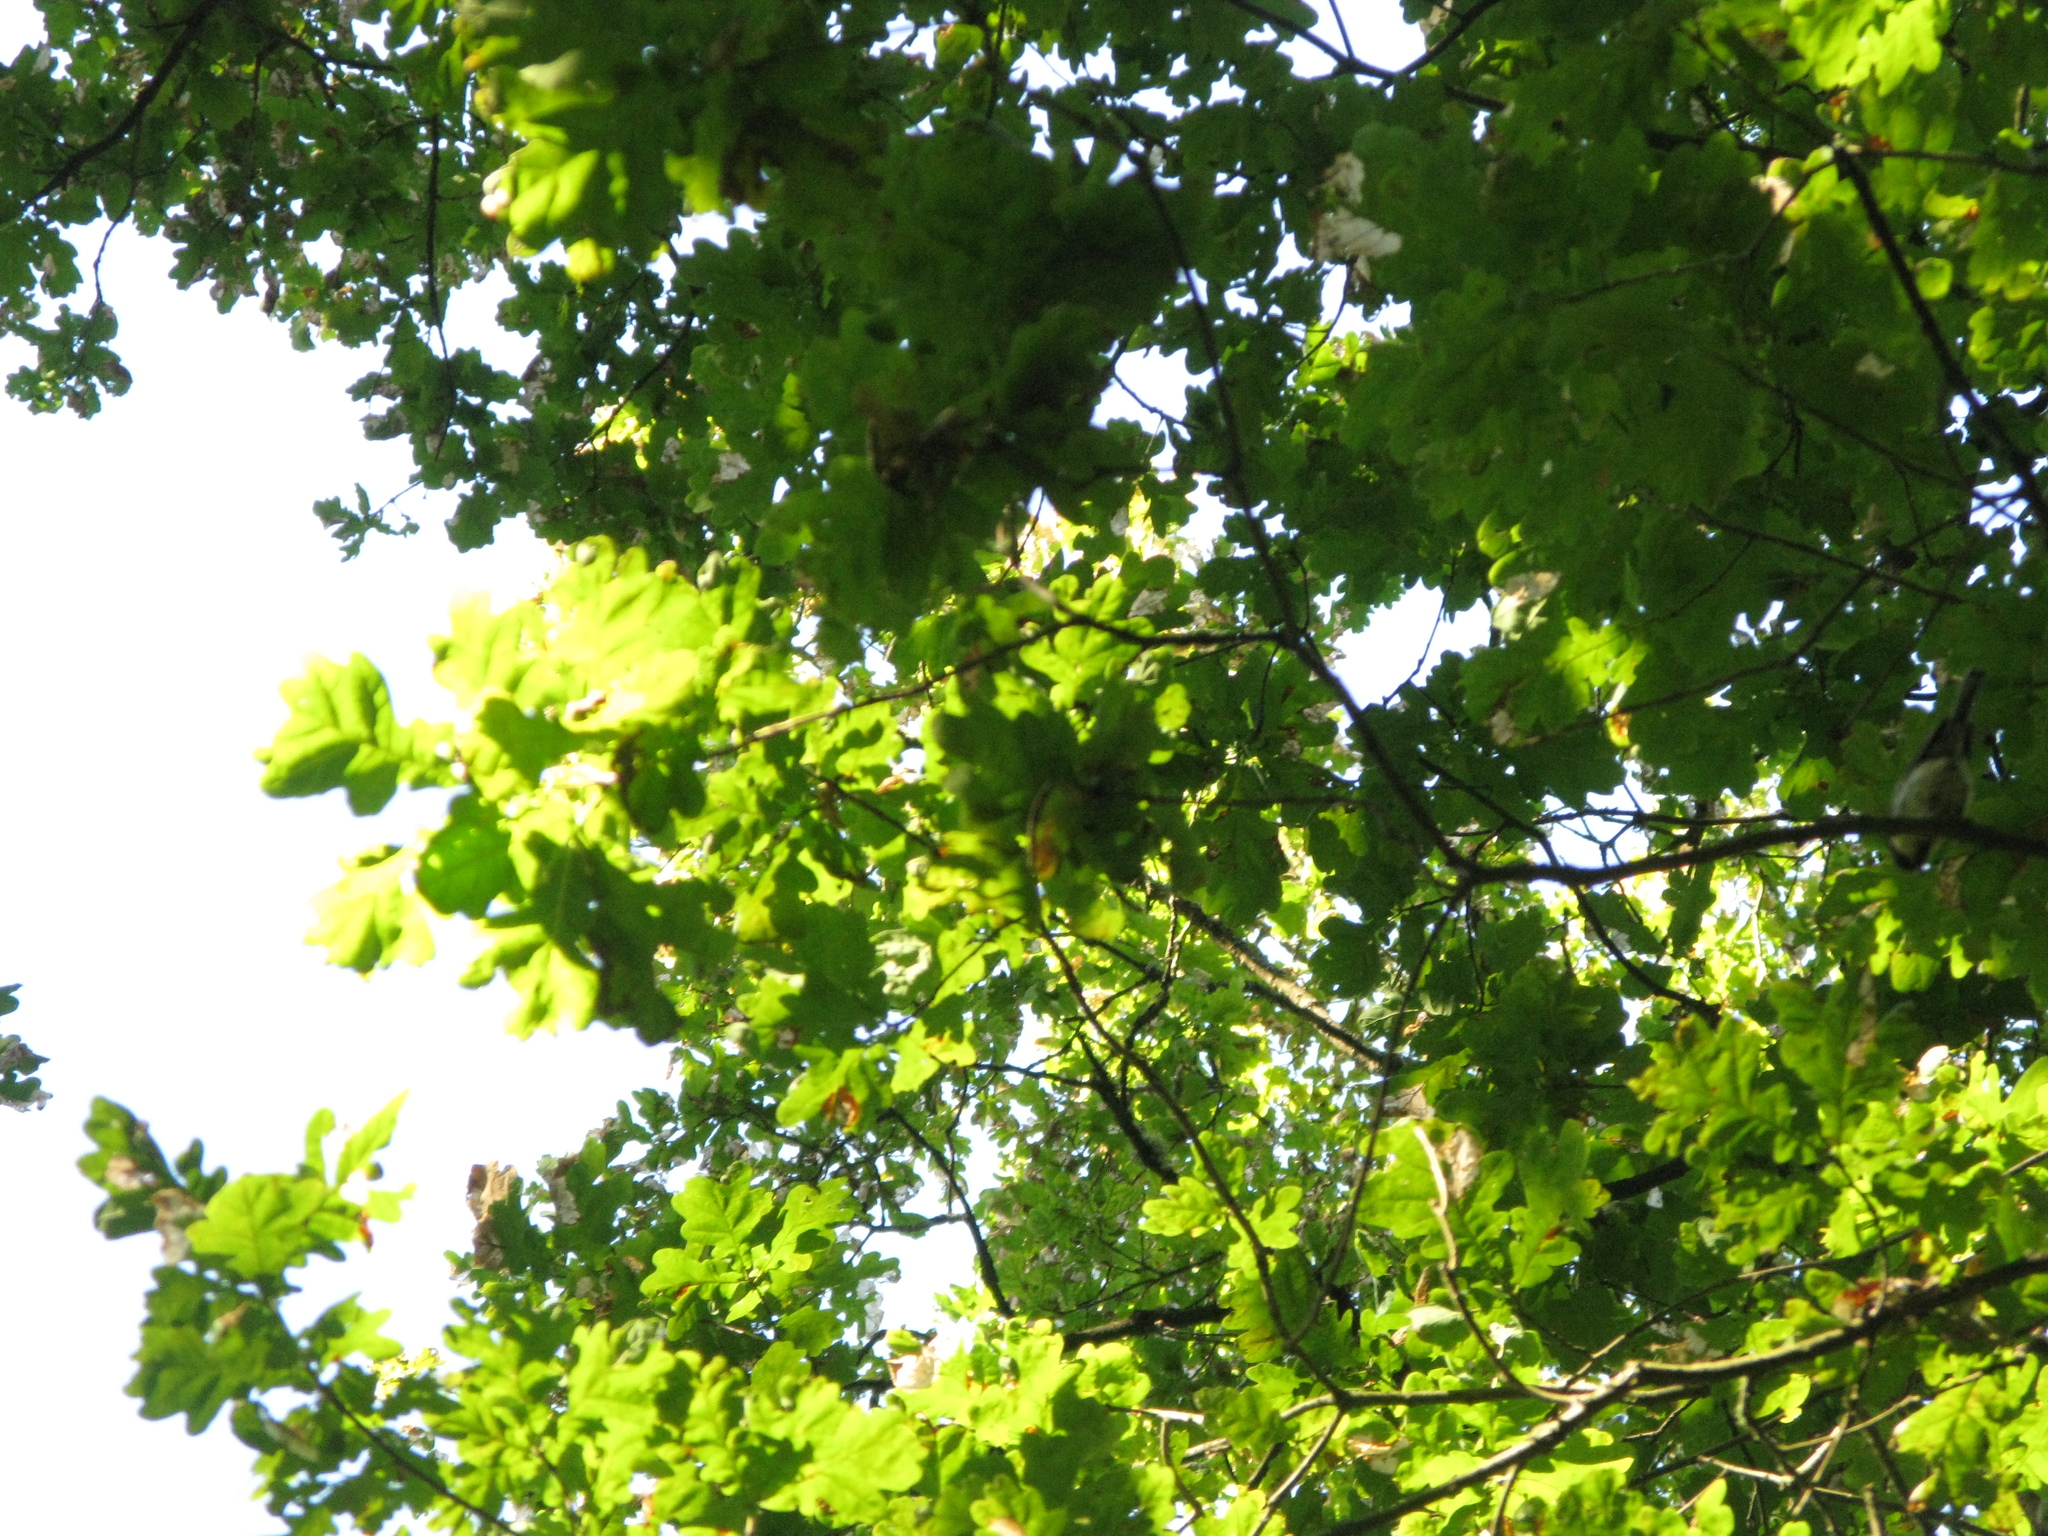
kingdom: Animalia
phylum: Chordata
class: Aves
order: Passeriformes
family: Paridae
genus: Parus
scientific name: Parus major
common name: Great tit
